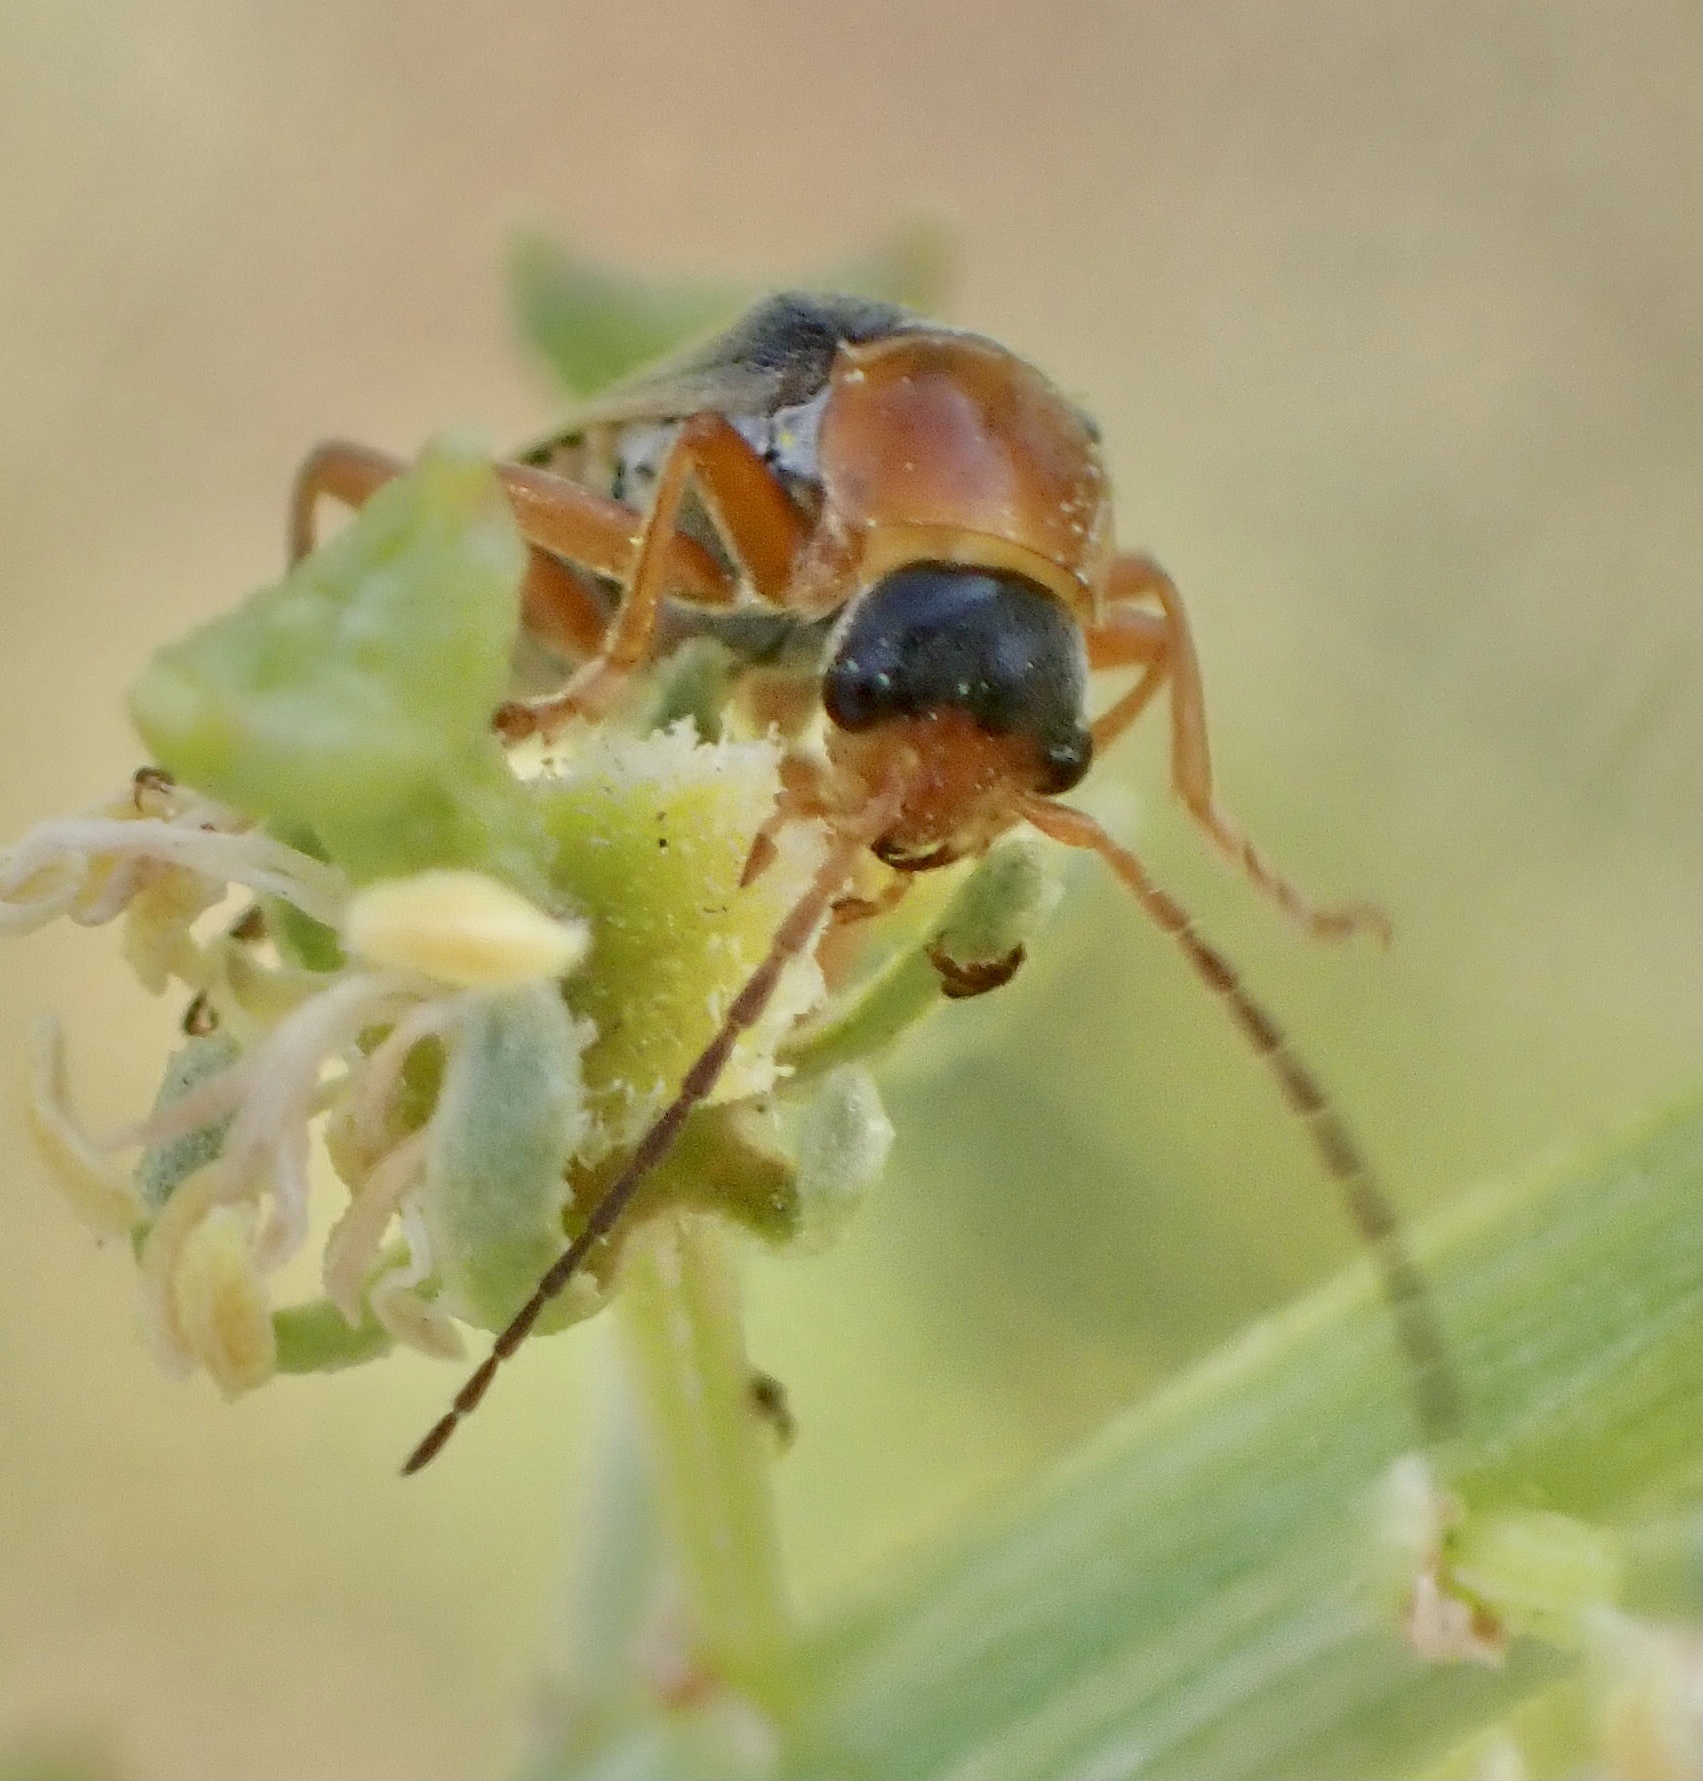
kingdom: Animalia
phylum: Arthropoda
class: Insecta
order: Coleoptera
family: Cantharidae
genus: Cantharis
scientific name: Cantharis lateralis
